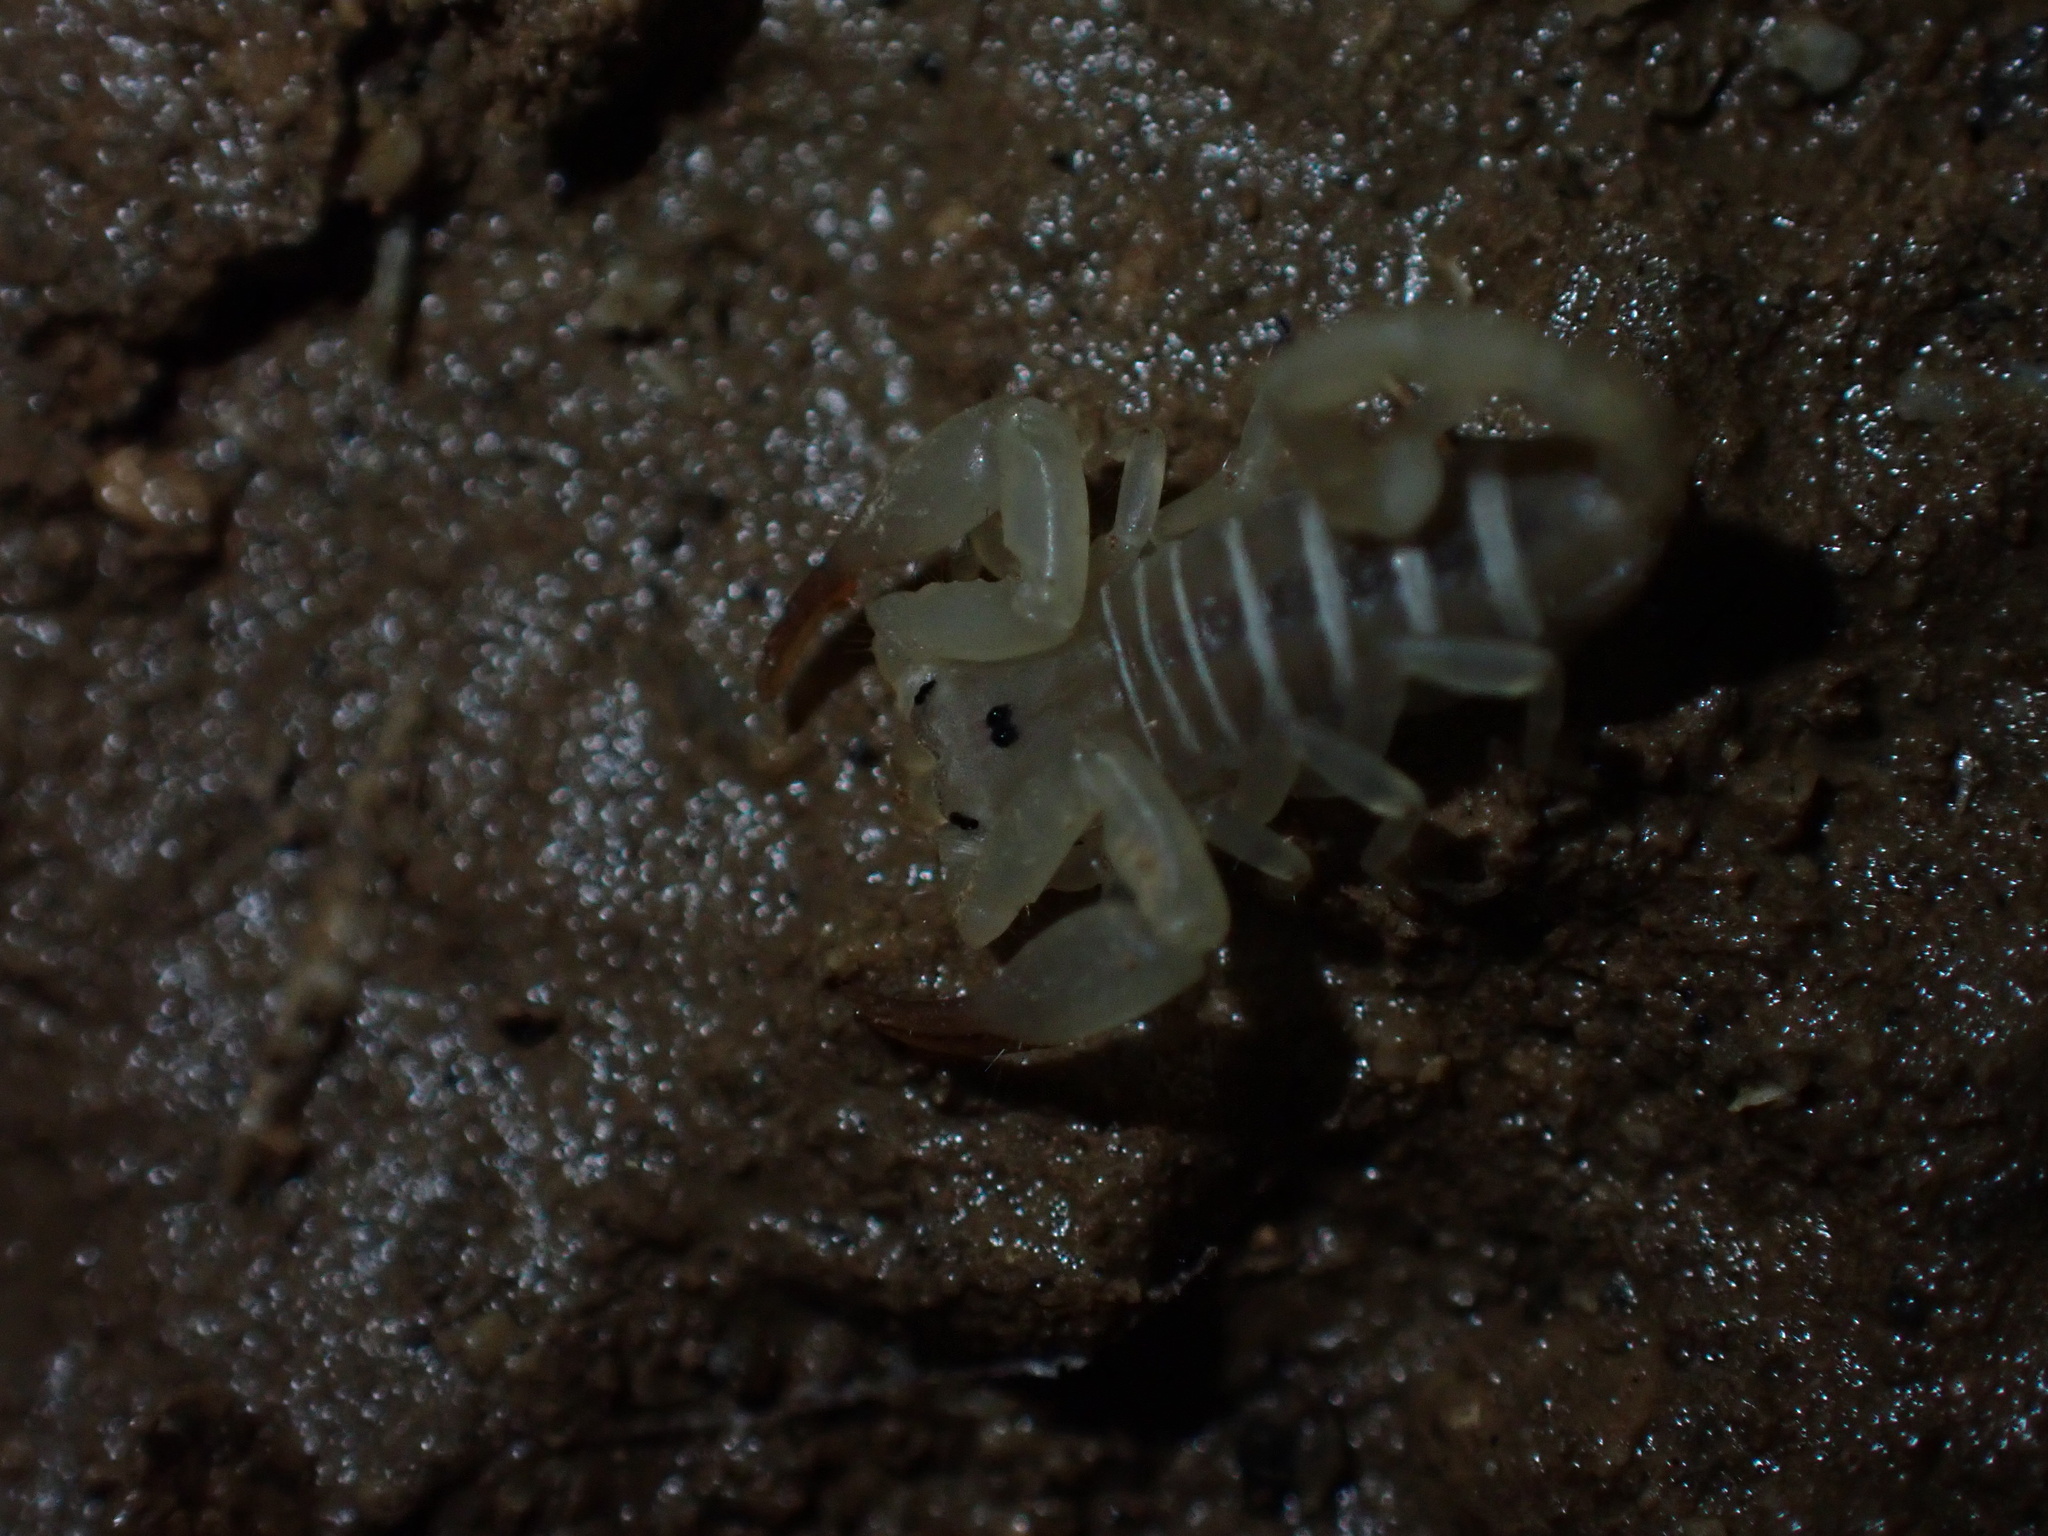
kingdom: Animalia
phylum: Arthropoda
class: Arachnida
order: Scorpiones
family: Hemiscorpiidae
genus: Hemiscorpius
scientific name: Hemiscorpius lepturus
